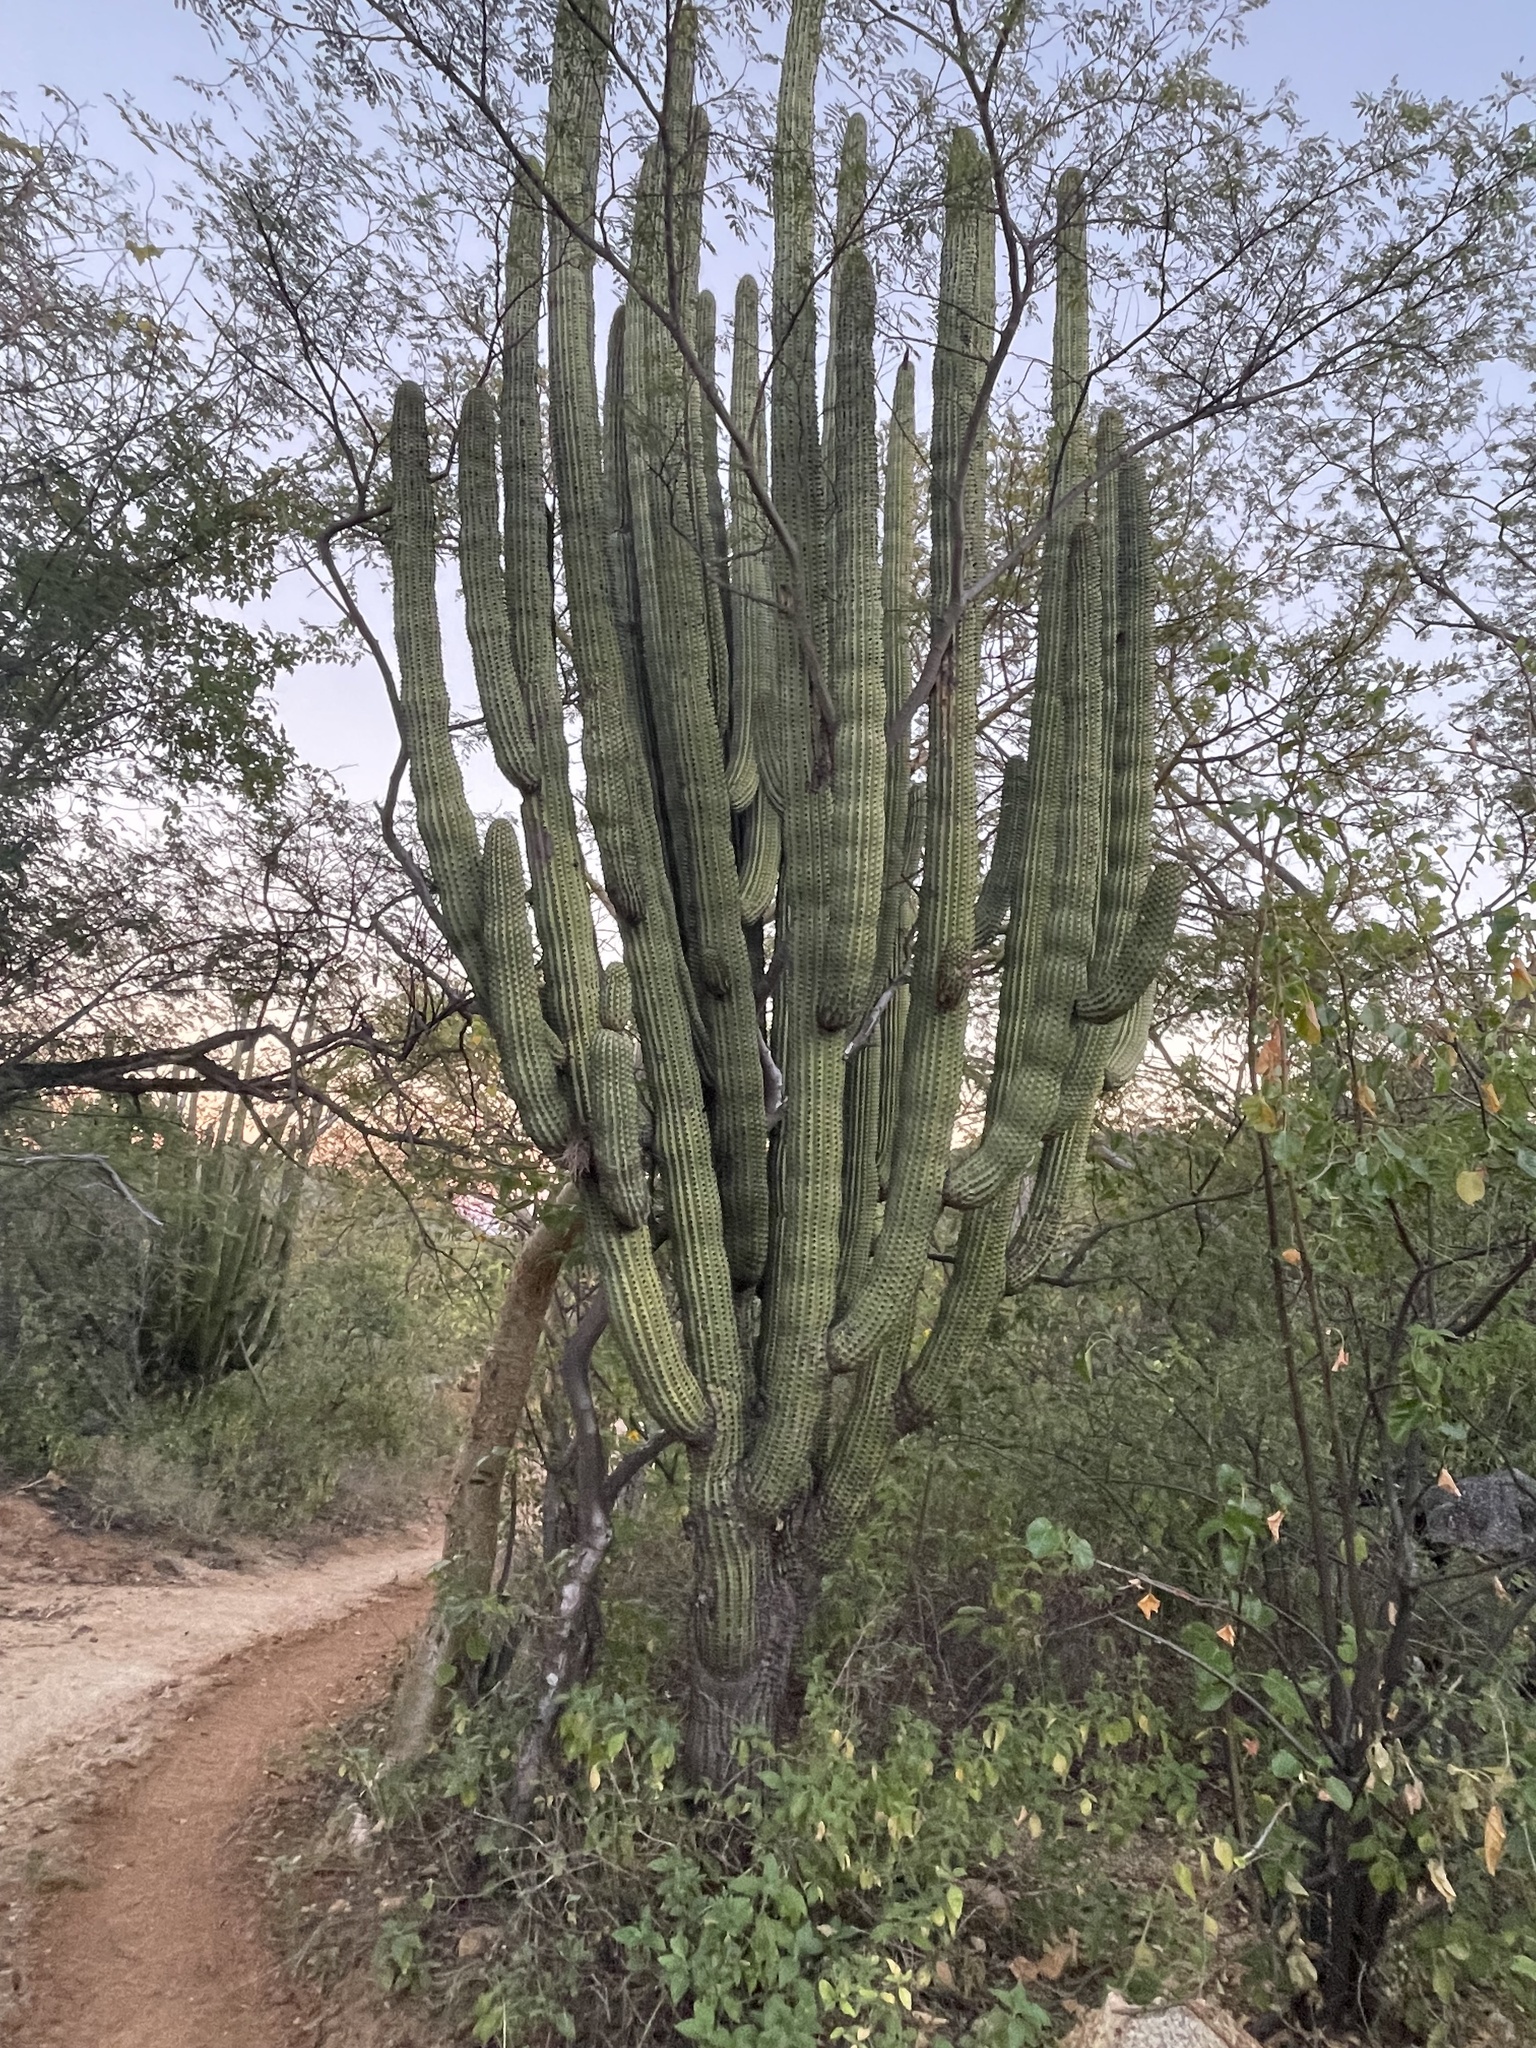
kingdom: Plantae
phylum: Tracheophyta
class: Magnoliopsida
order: Caryophyllales
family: Cactaceae
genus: Stenocereus
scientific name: Stenocereus thurberi
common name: Organ pipe cactus
